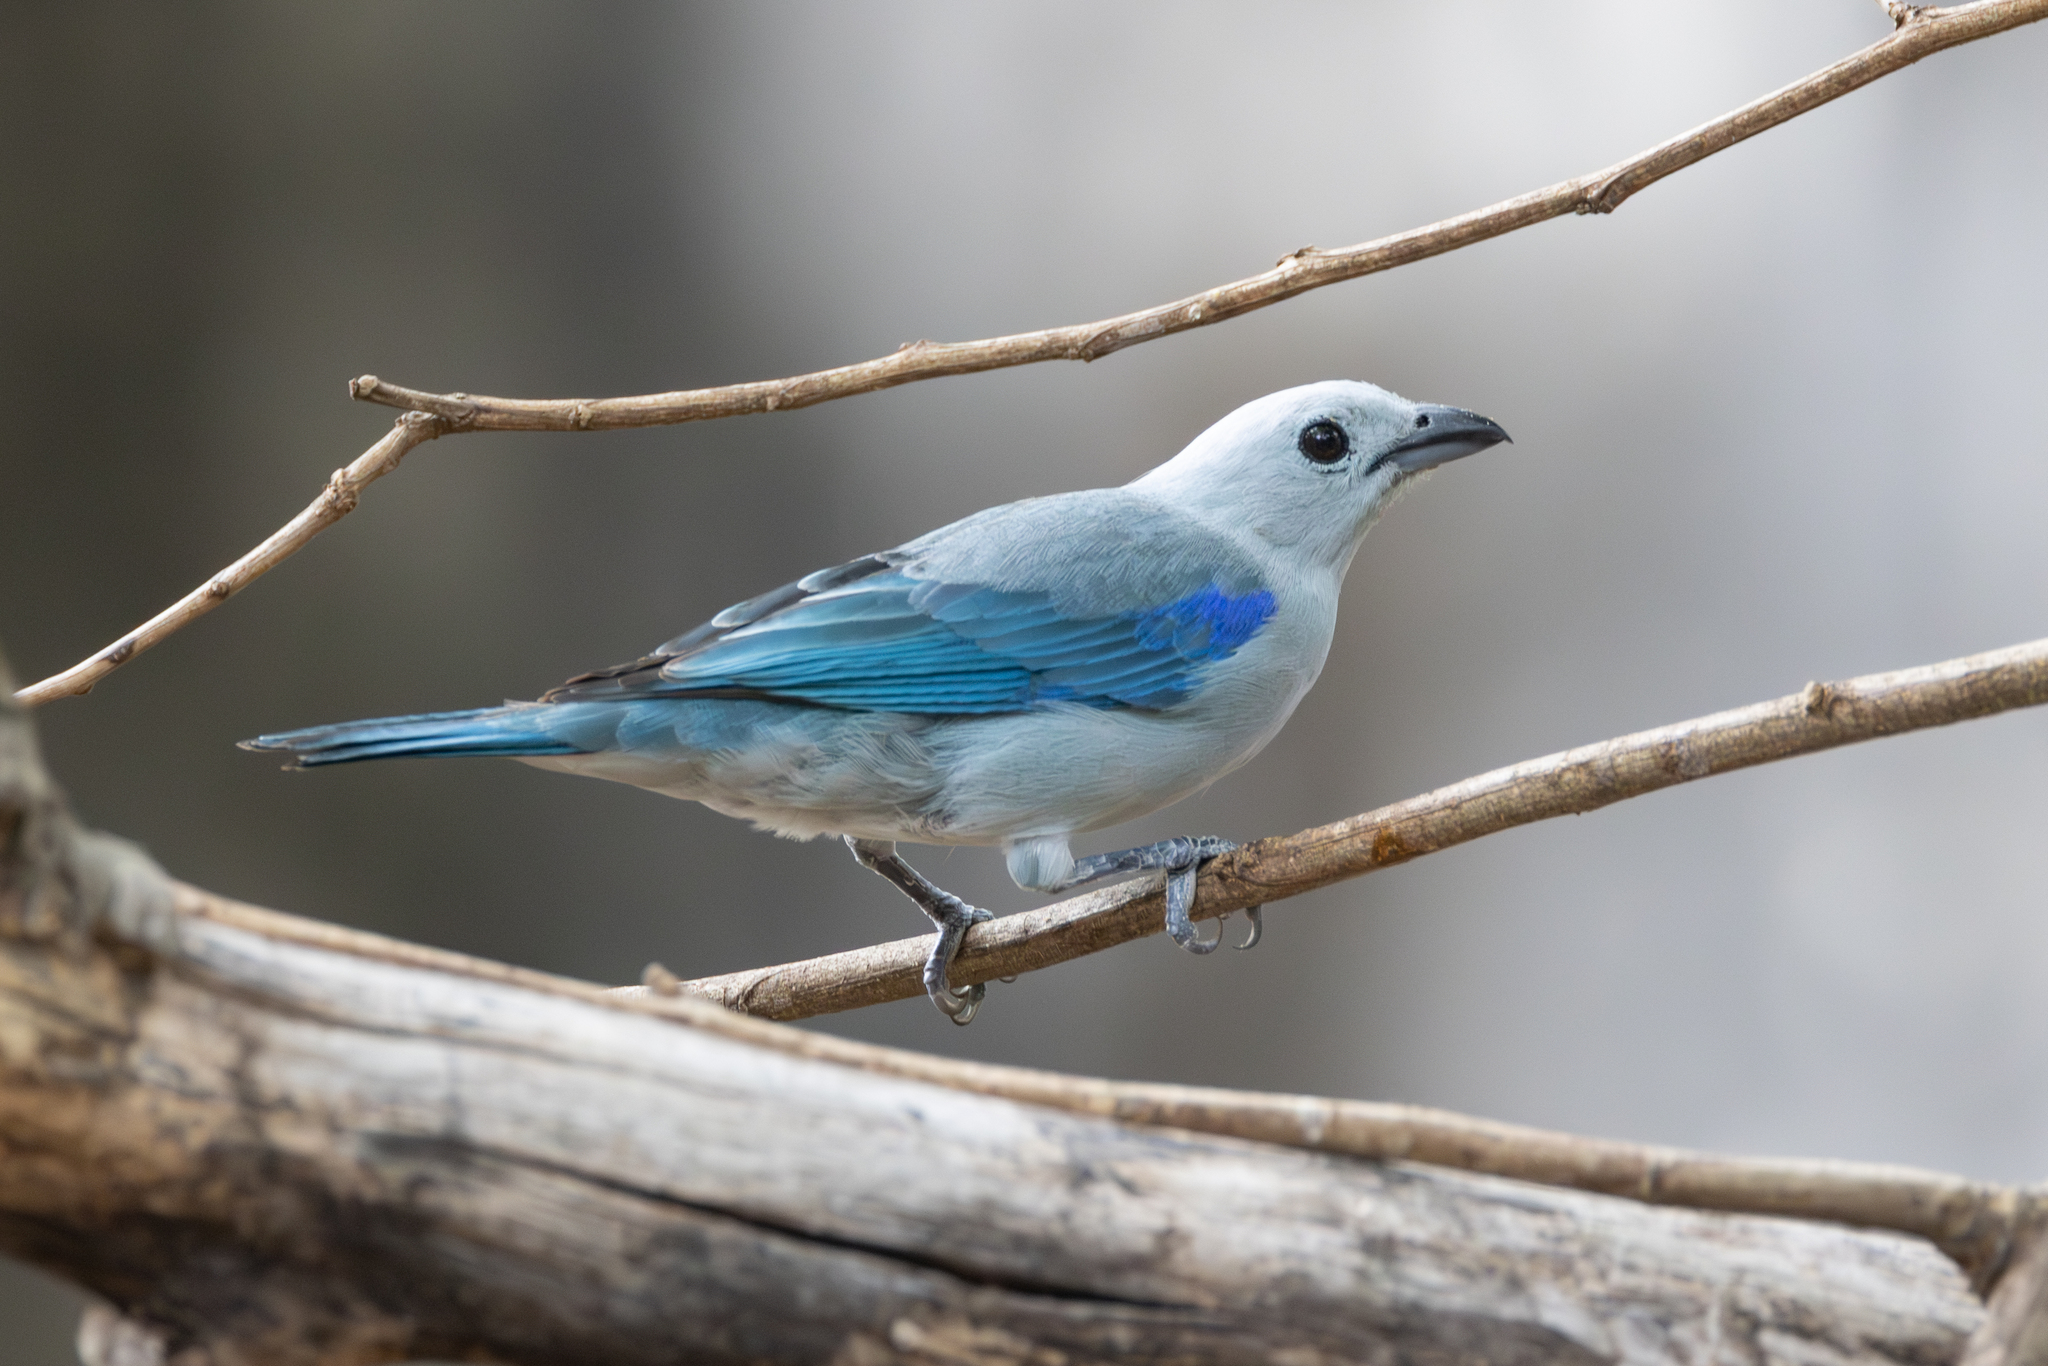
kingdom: Animalia
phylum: Chordata
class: Aves
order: Passeriformes
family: Thraupidae
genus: Thraupis
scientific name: Thraupis episcopus
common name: Blue-grey tanager
